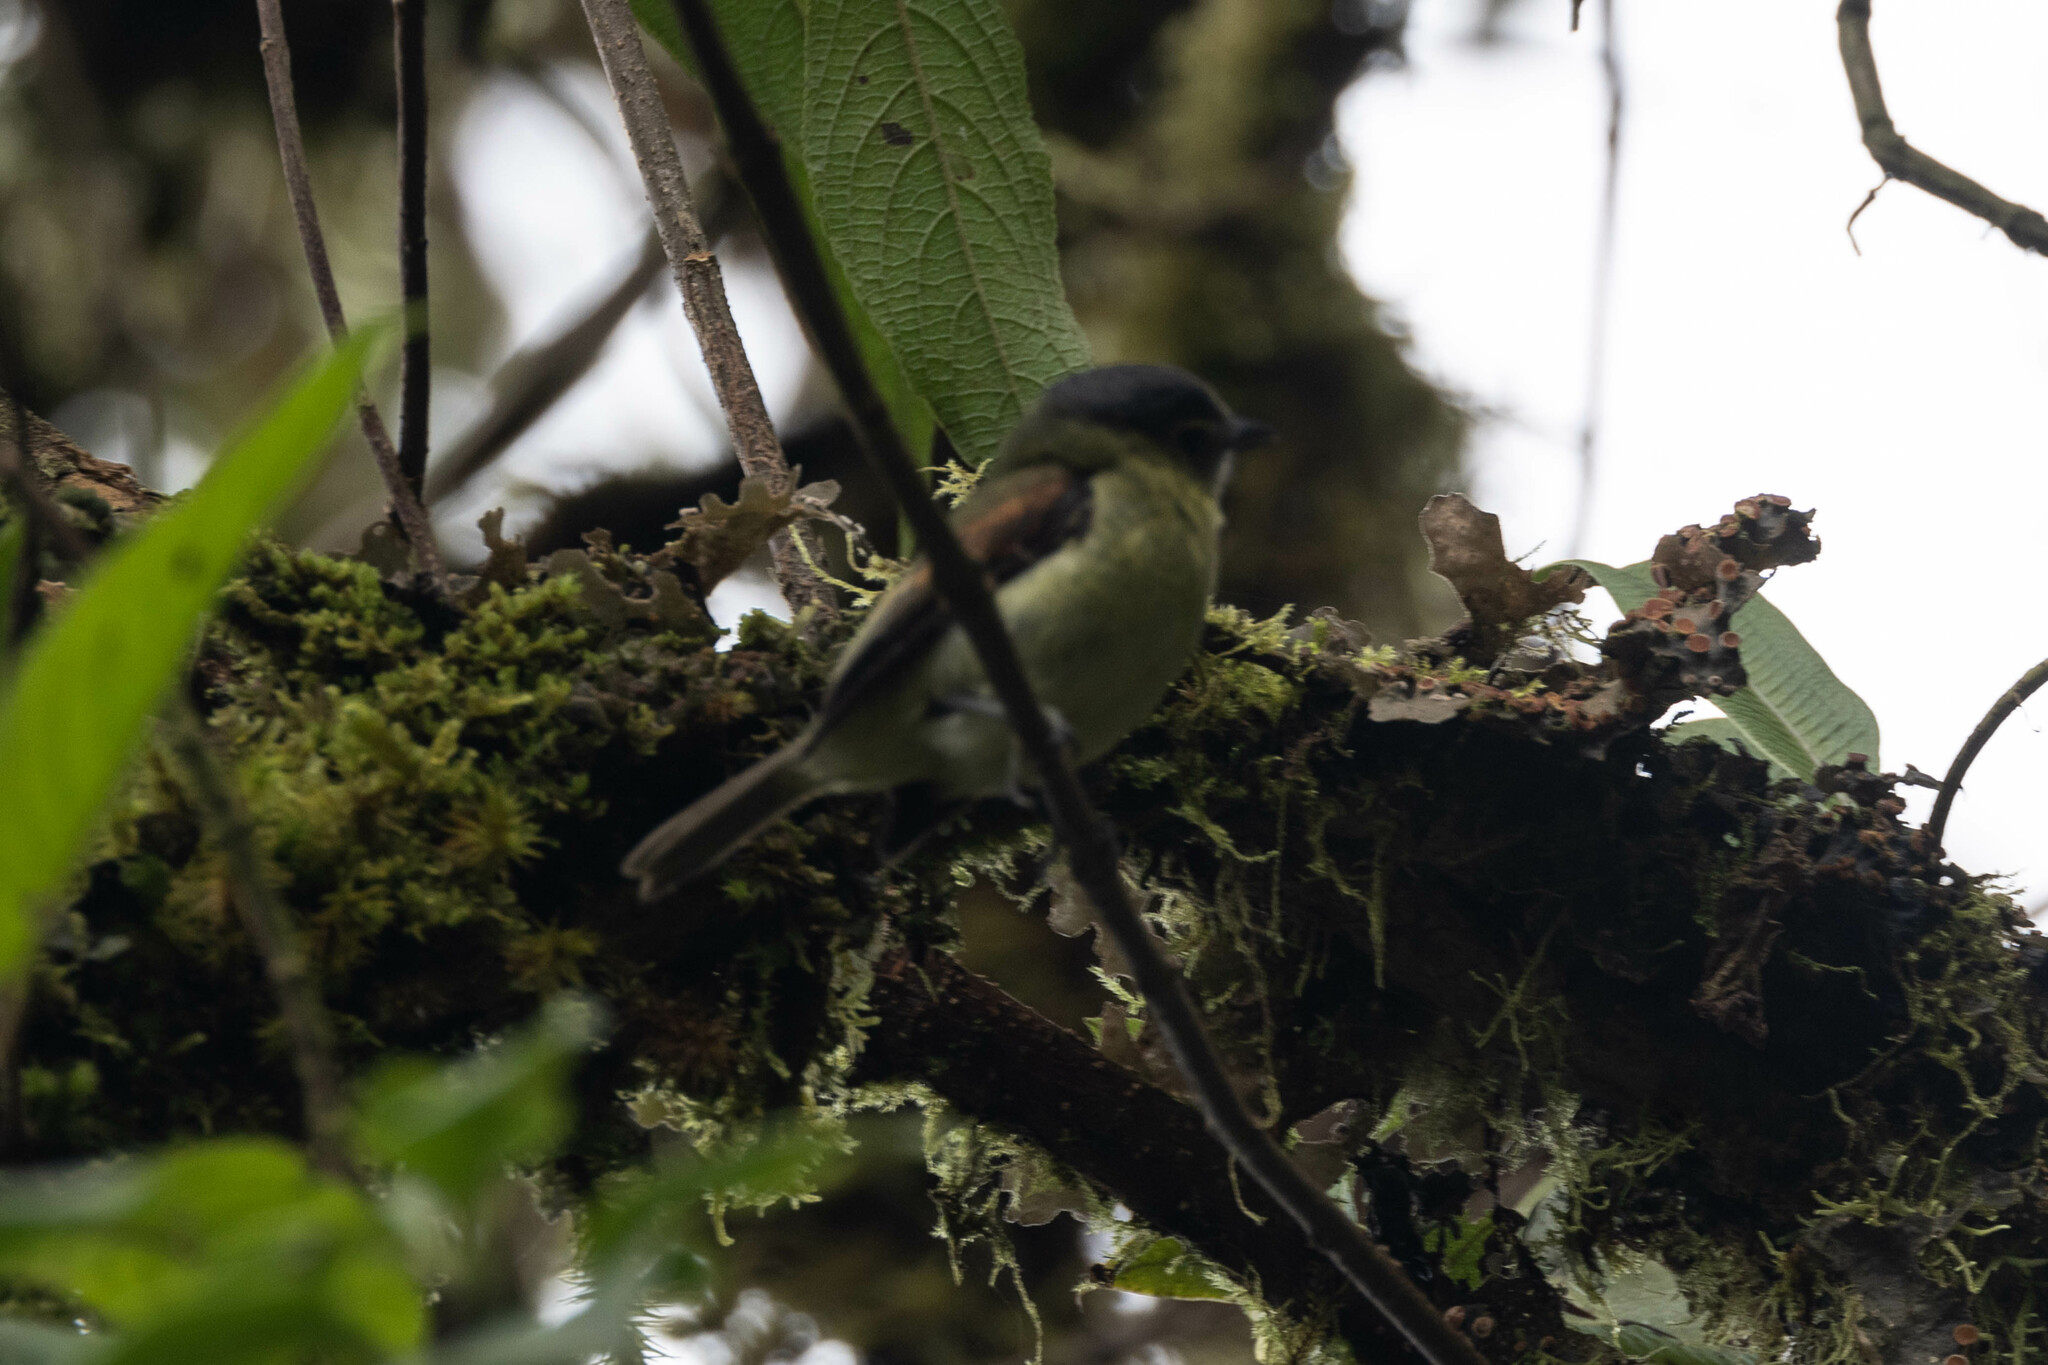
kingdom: Animalia
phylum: Chordata
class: Aves
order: Passeriformes
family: Cotingidae
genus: Pachyramphus
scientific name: Pachyramphus versicolor
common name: Barred becard
